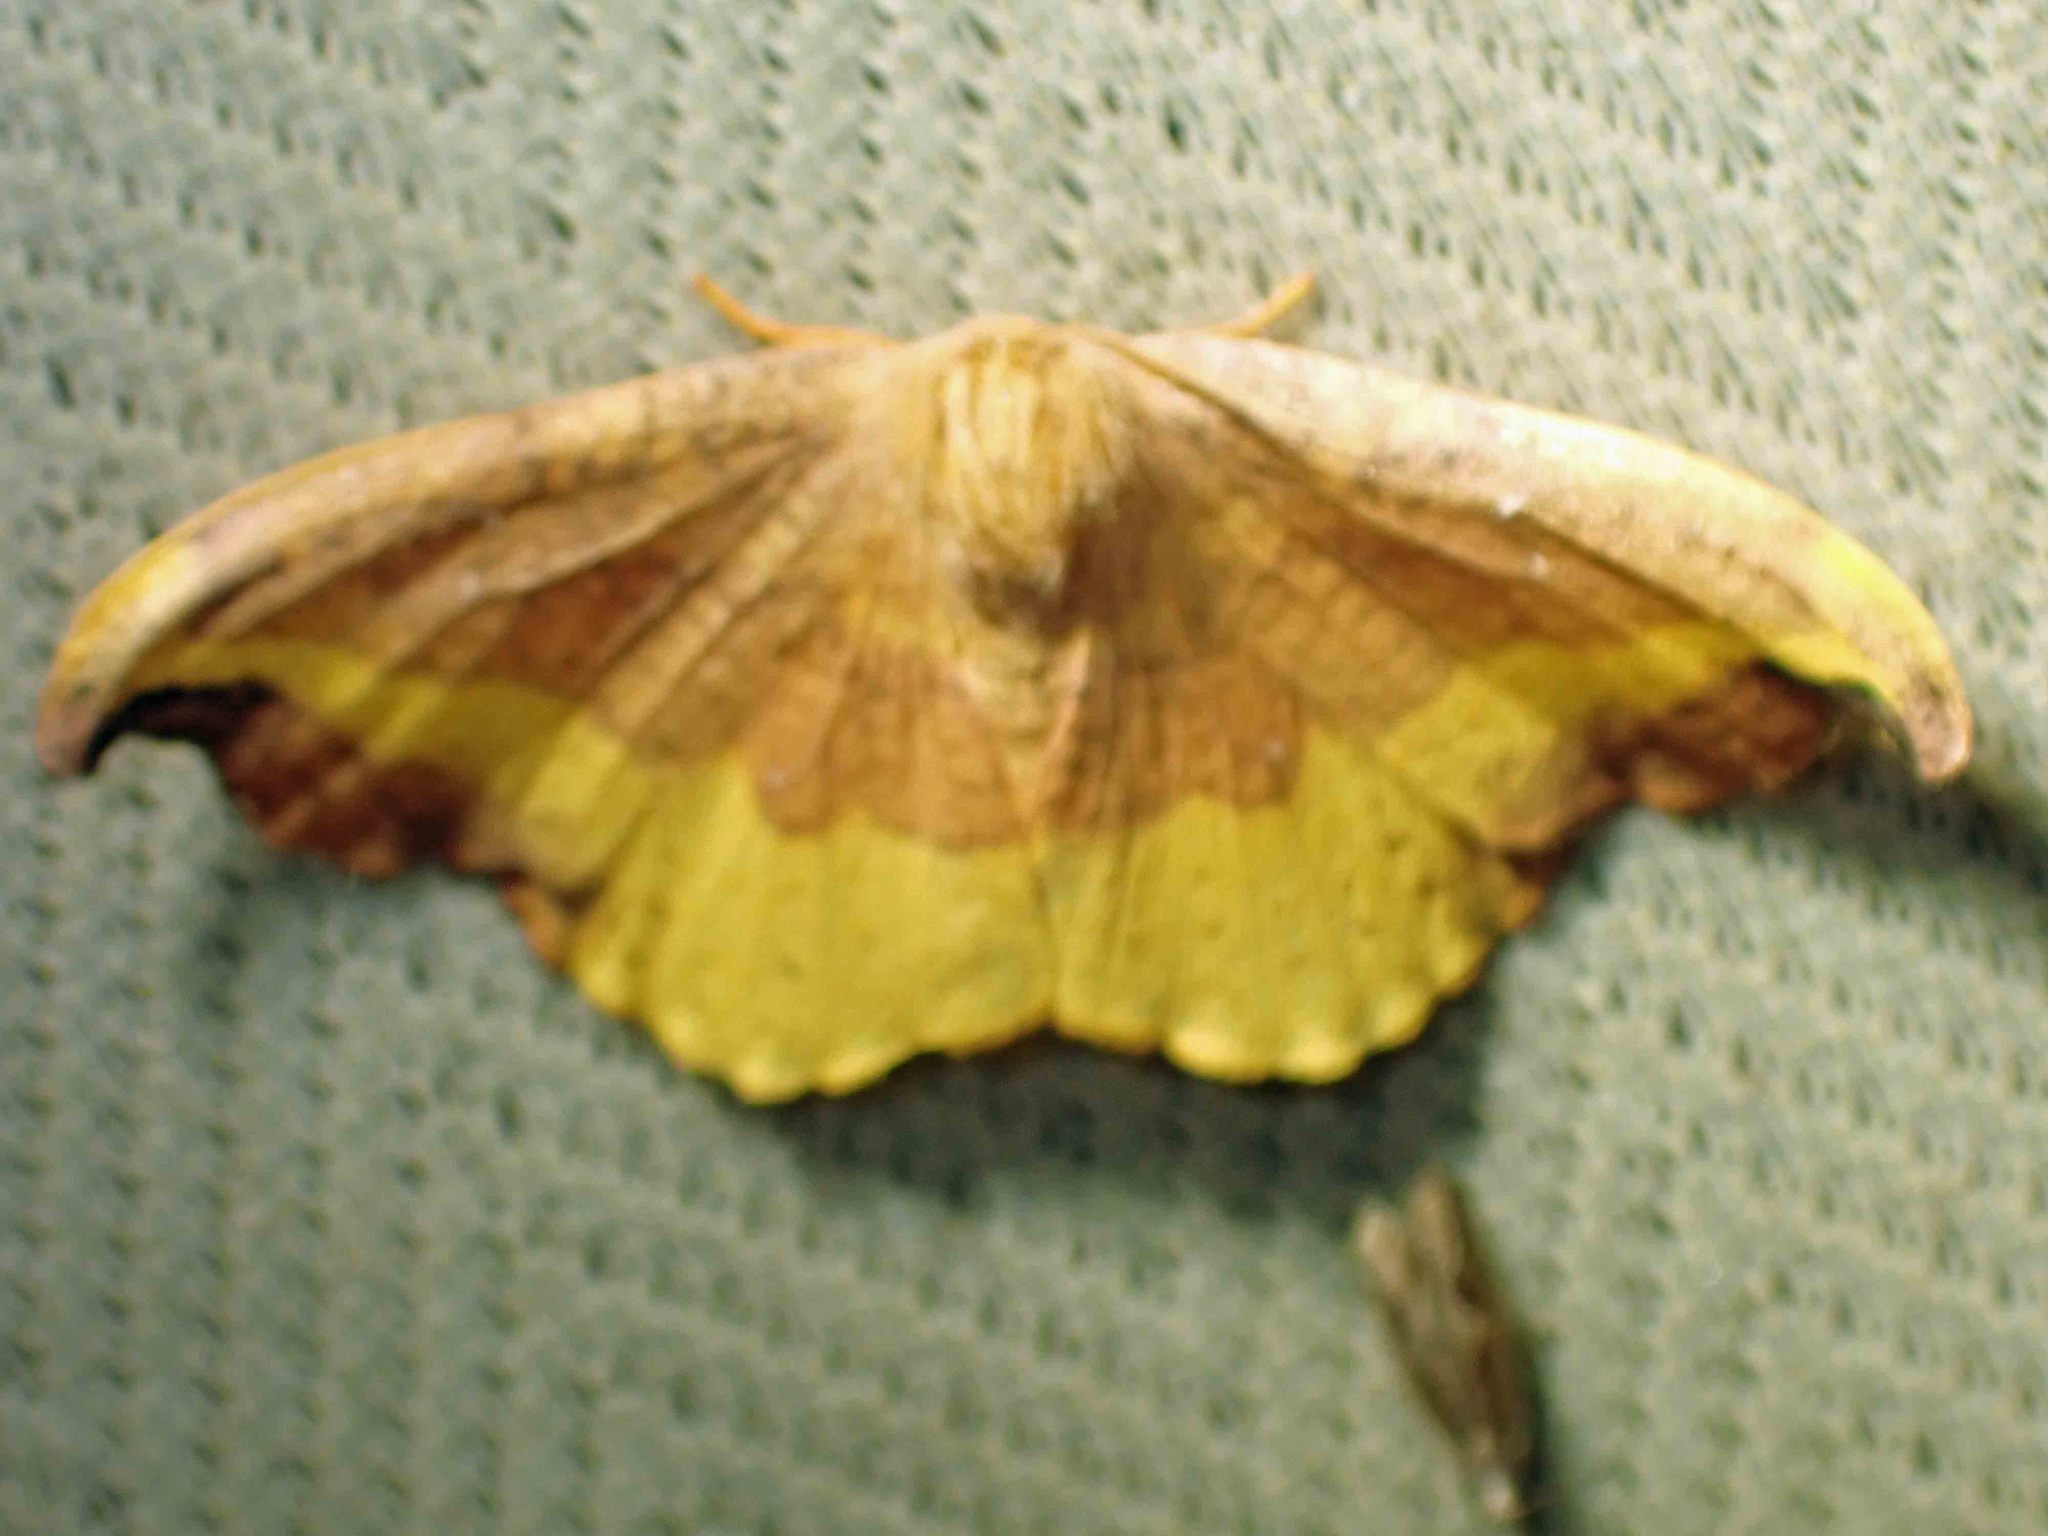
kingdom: Animalia
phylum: Arthropoda
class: Insecta
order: Lepidoptera
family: Drepanidae
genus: Oreta
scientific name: Oreta rosea
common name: Rose hooktip
